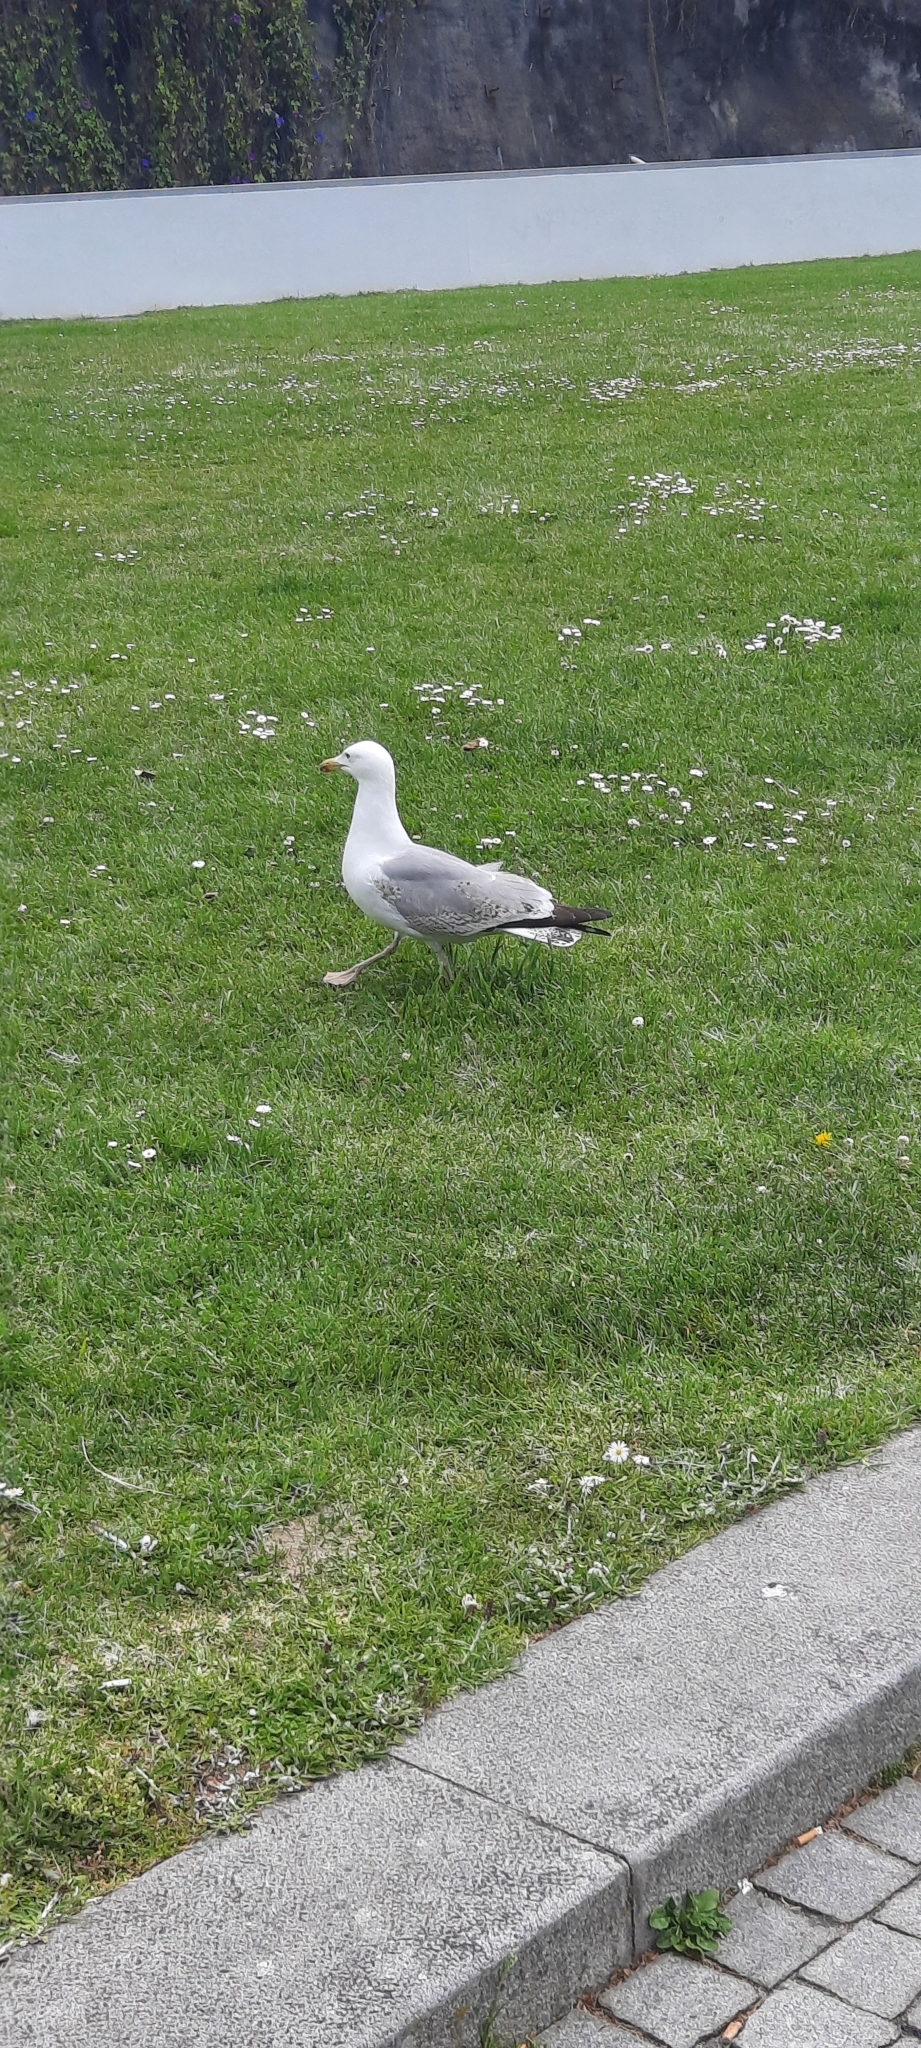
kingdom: Animalia
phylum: Chordata
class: Aves
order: Charadriiformes
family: Laridae
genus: Larus
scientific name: Larus michahellis
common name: Yellow-legged gull
